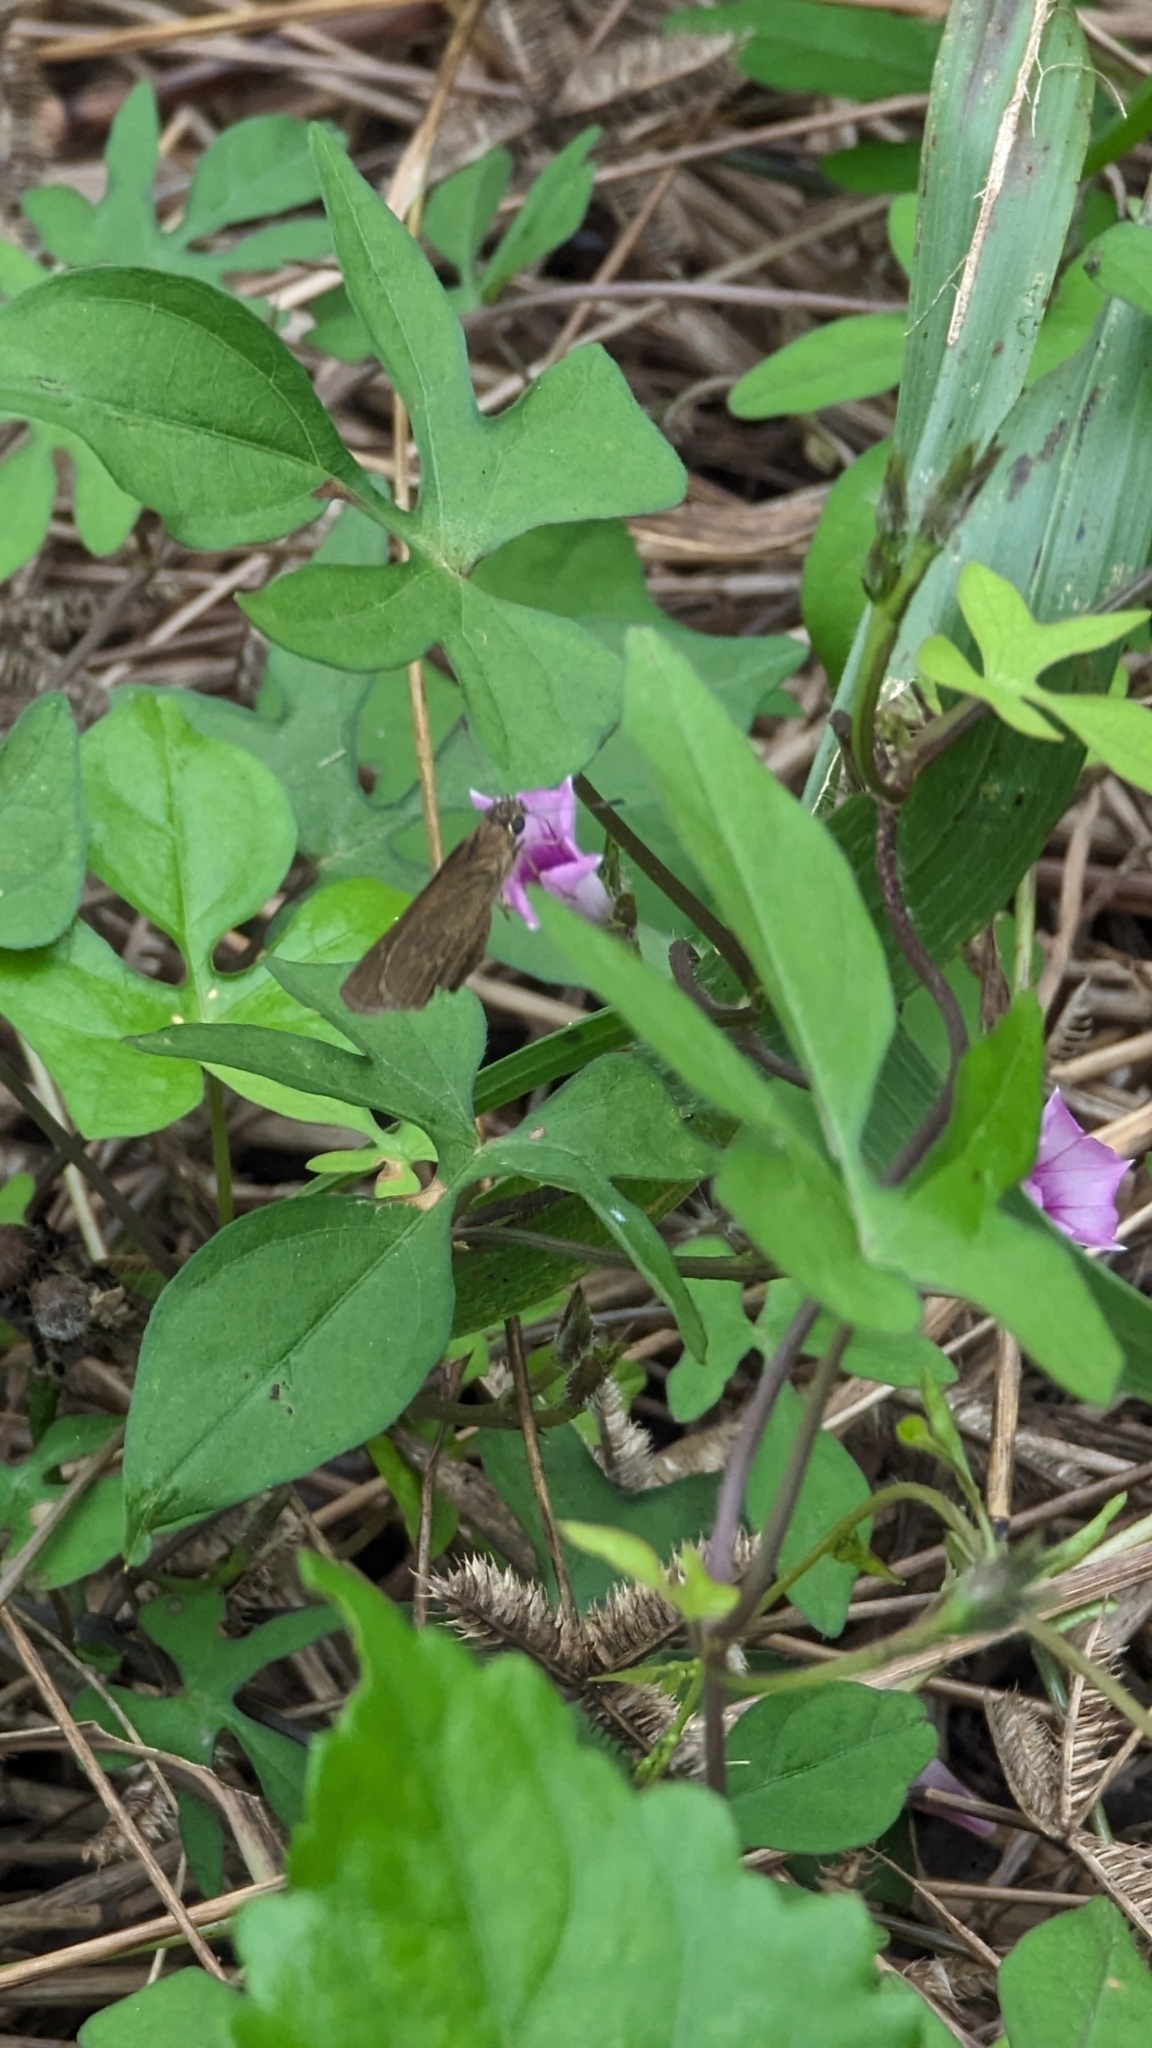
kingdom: Animalia
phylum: Arthropoda
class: Insecta
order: Lepidoptera
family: Hesperiidae
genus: Cymaenes
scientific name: Cymaenes tripunctus
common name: Dingy dotted skipper
